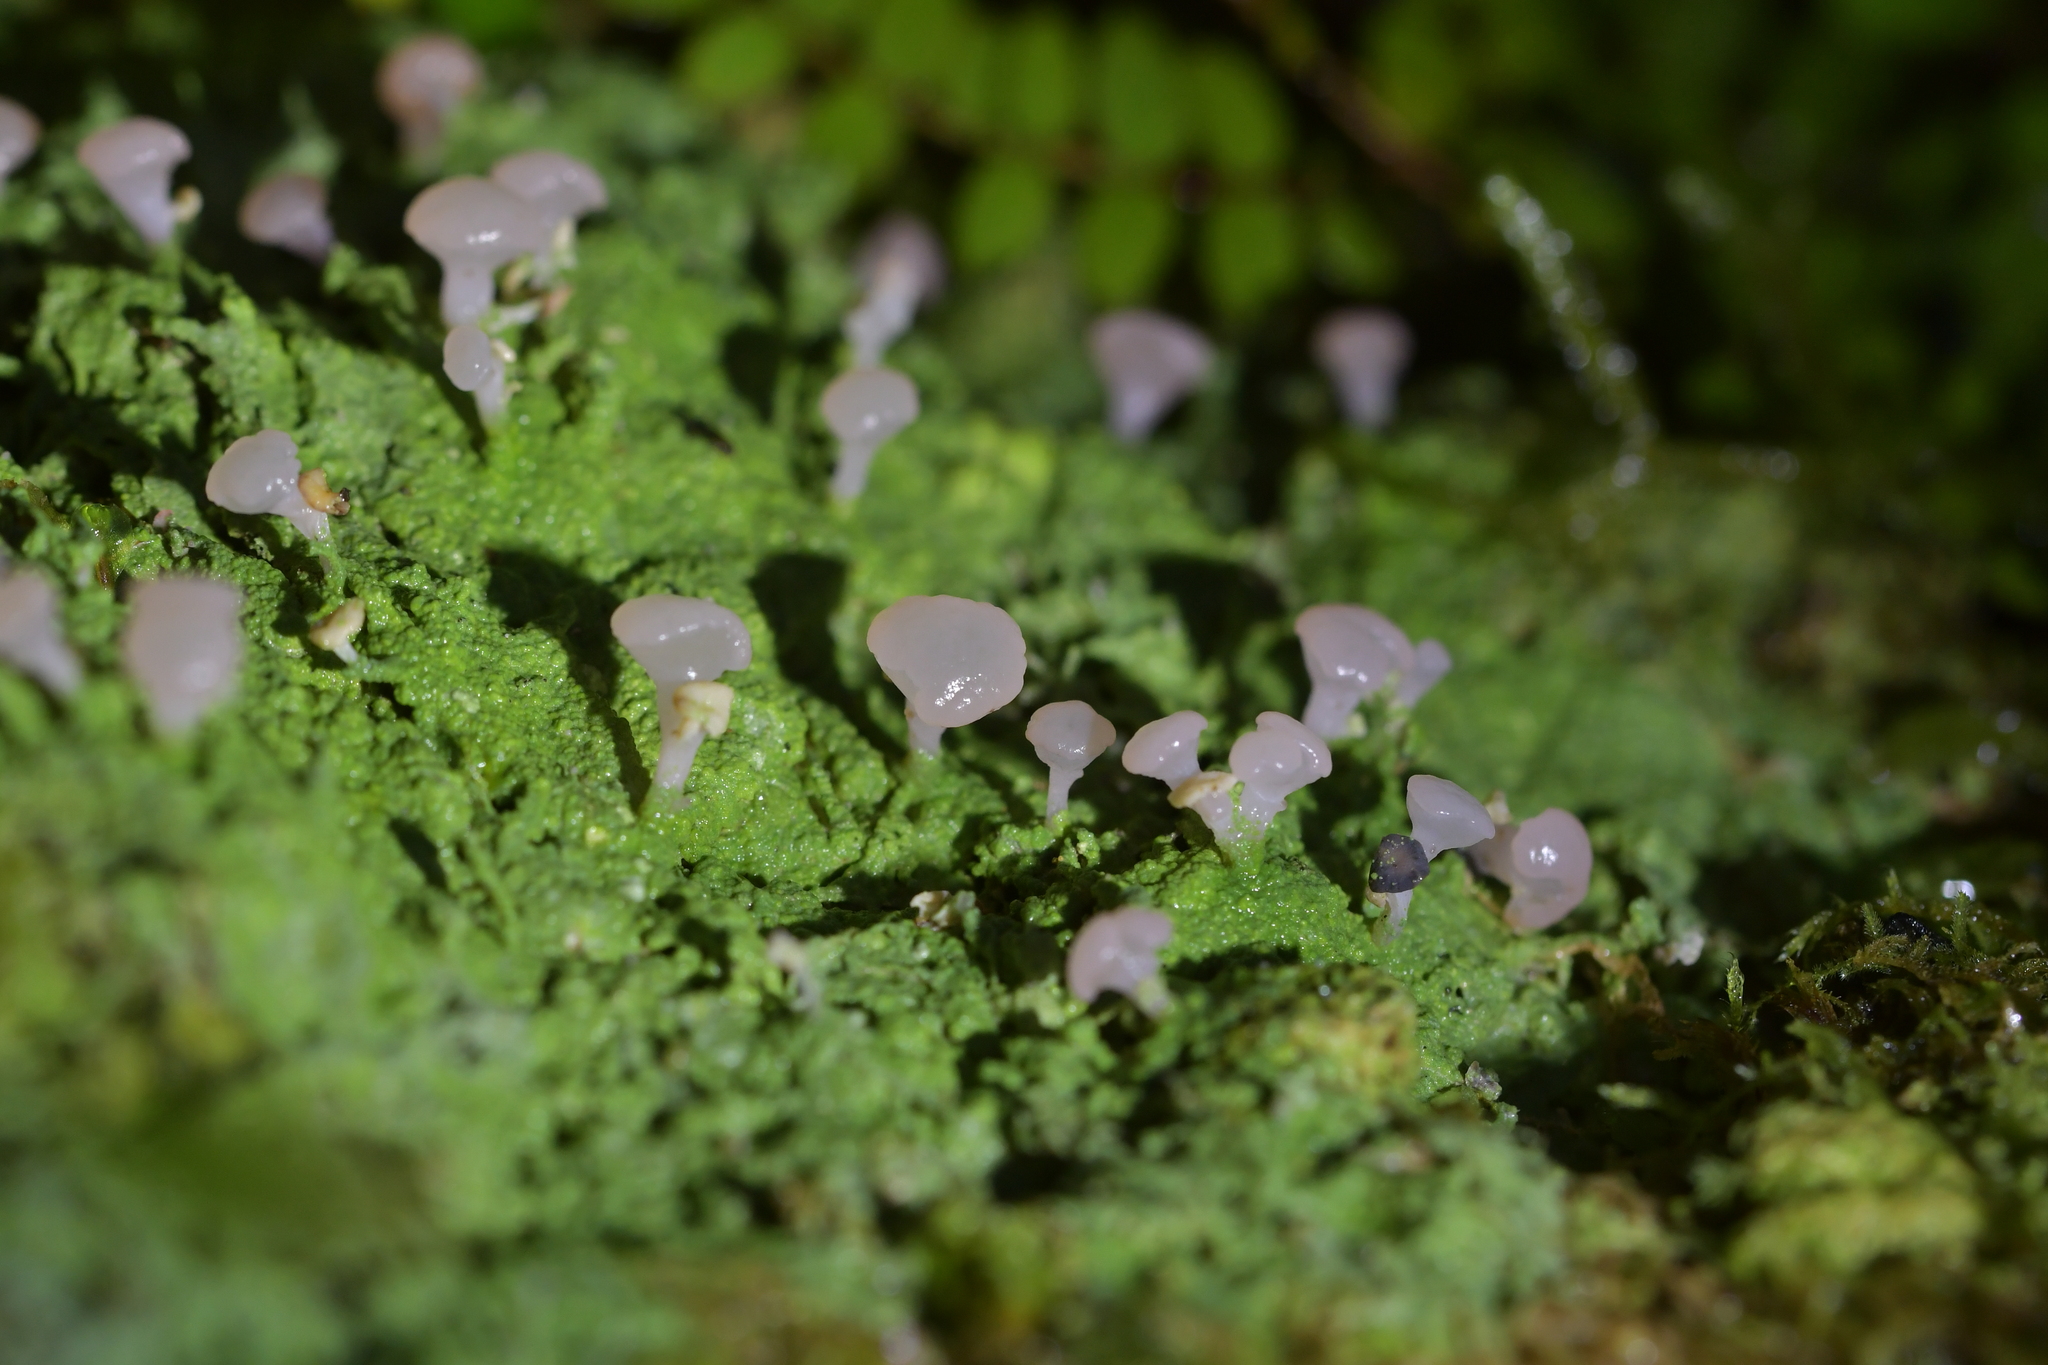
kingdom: Fungi
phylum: Ascomycota
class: Lecanoromycetes
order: Baeomycetales
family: Baeomycetaceae
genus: Baeomyces
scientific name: Baeomyces heteromorphus
